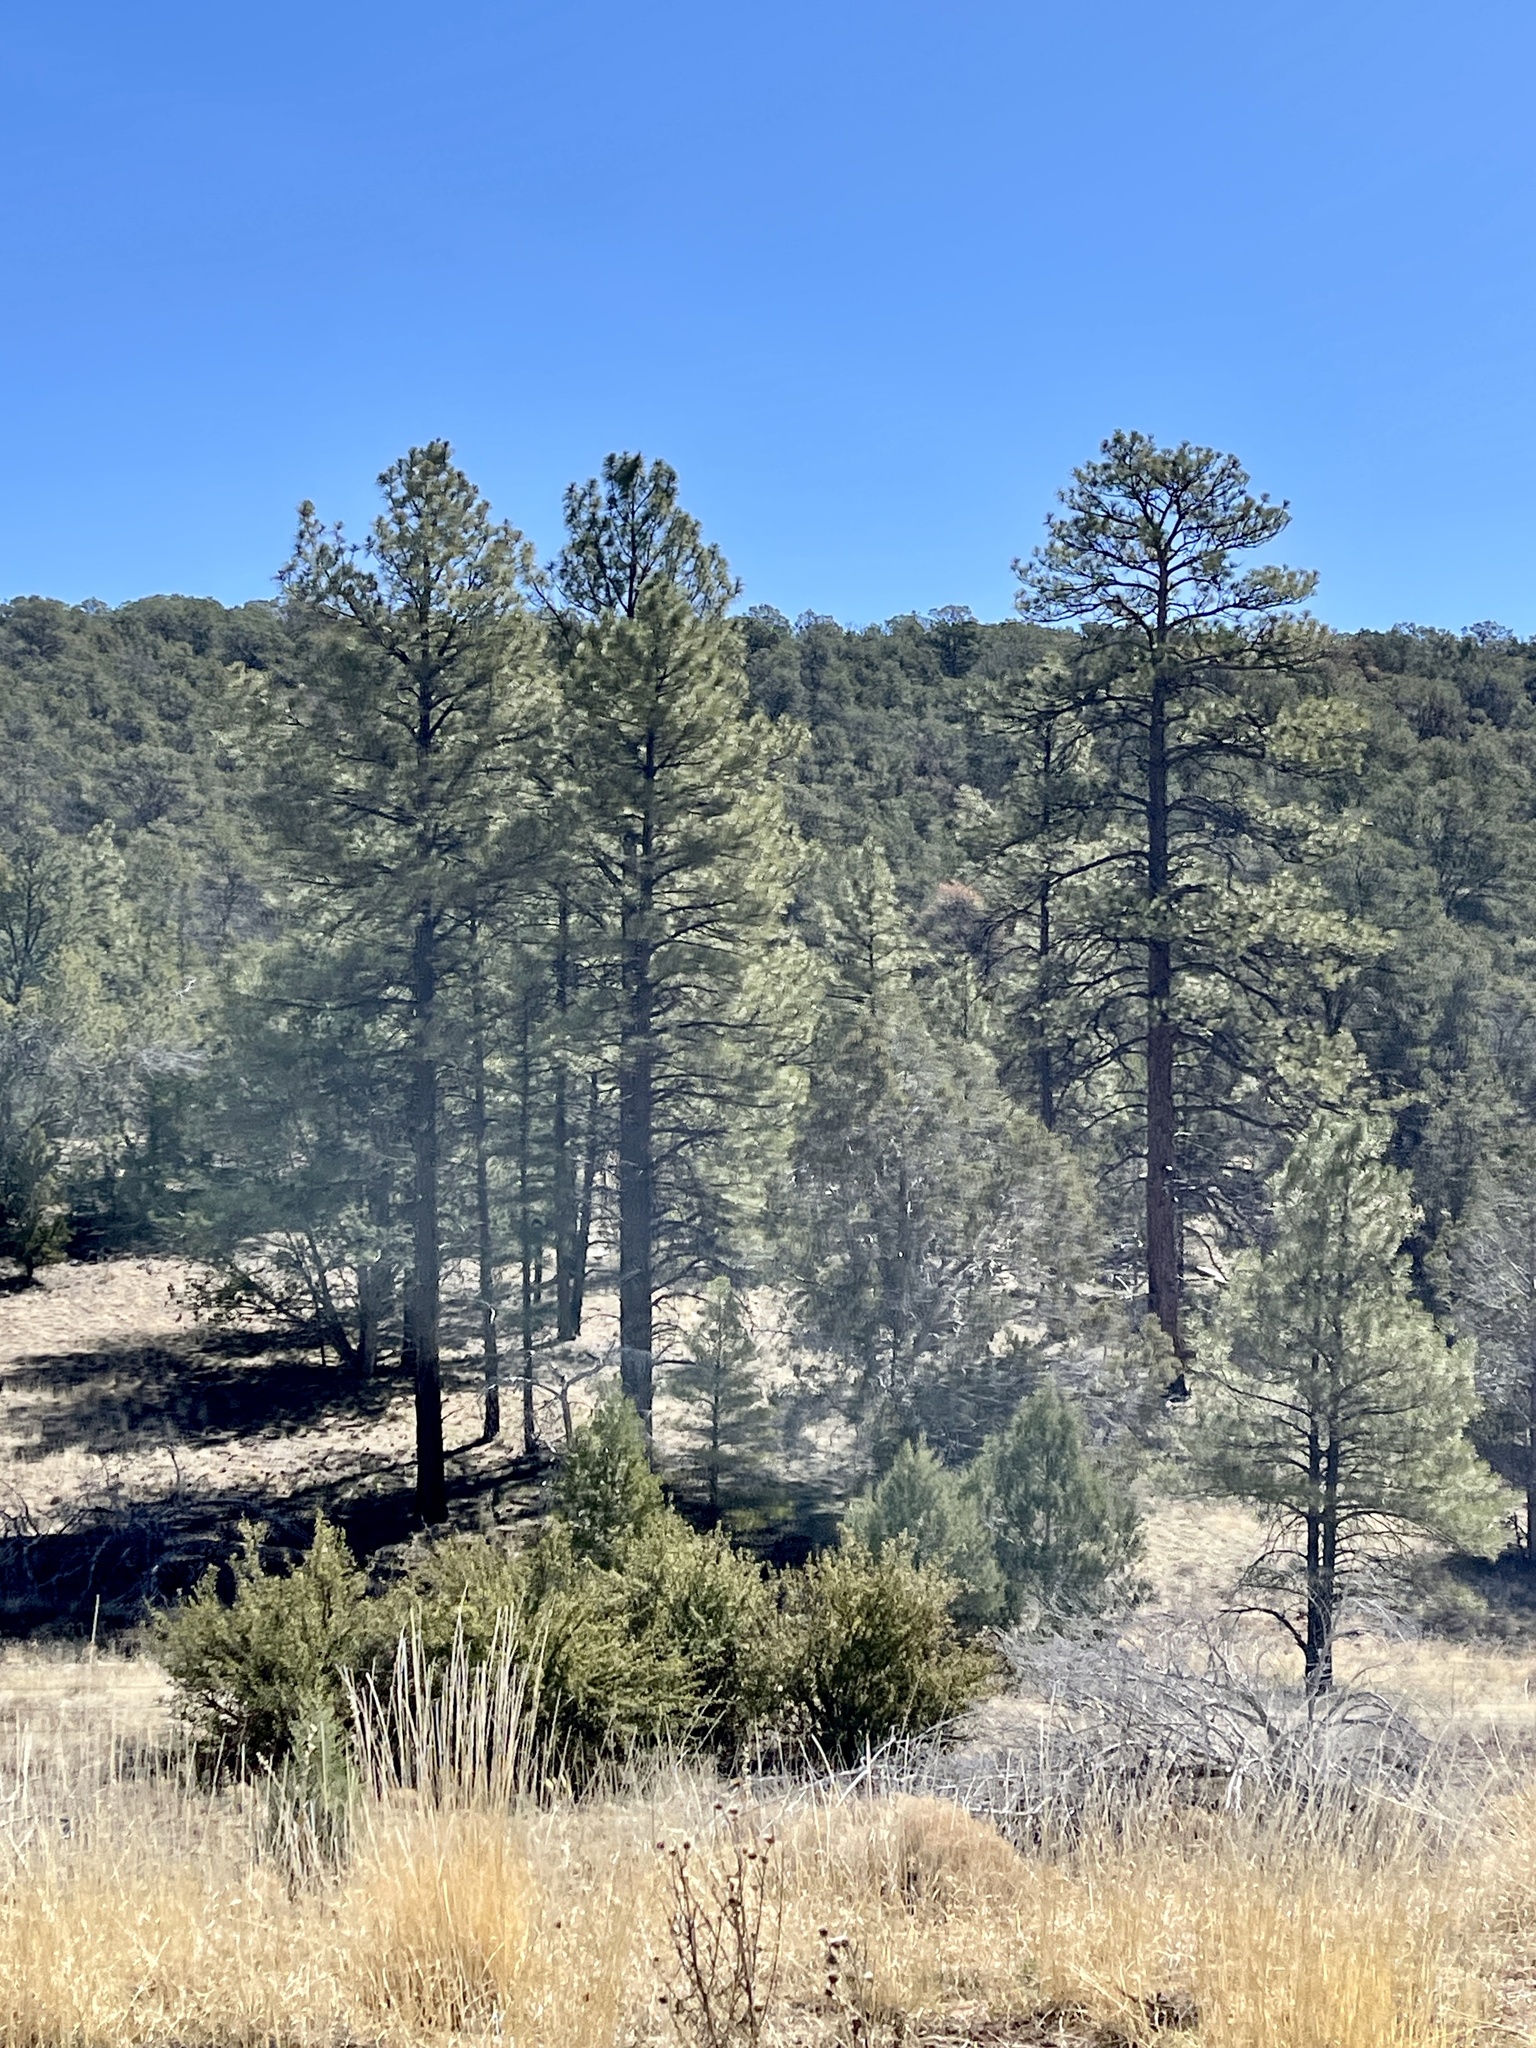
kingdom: Plantae
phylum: Tracheophyta
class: Pinopsida
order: Pinales
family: Pinaceae
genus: Pinus
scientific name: Pinus ponderosa
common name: Western yellow-pine
